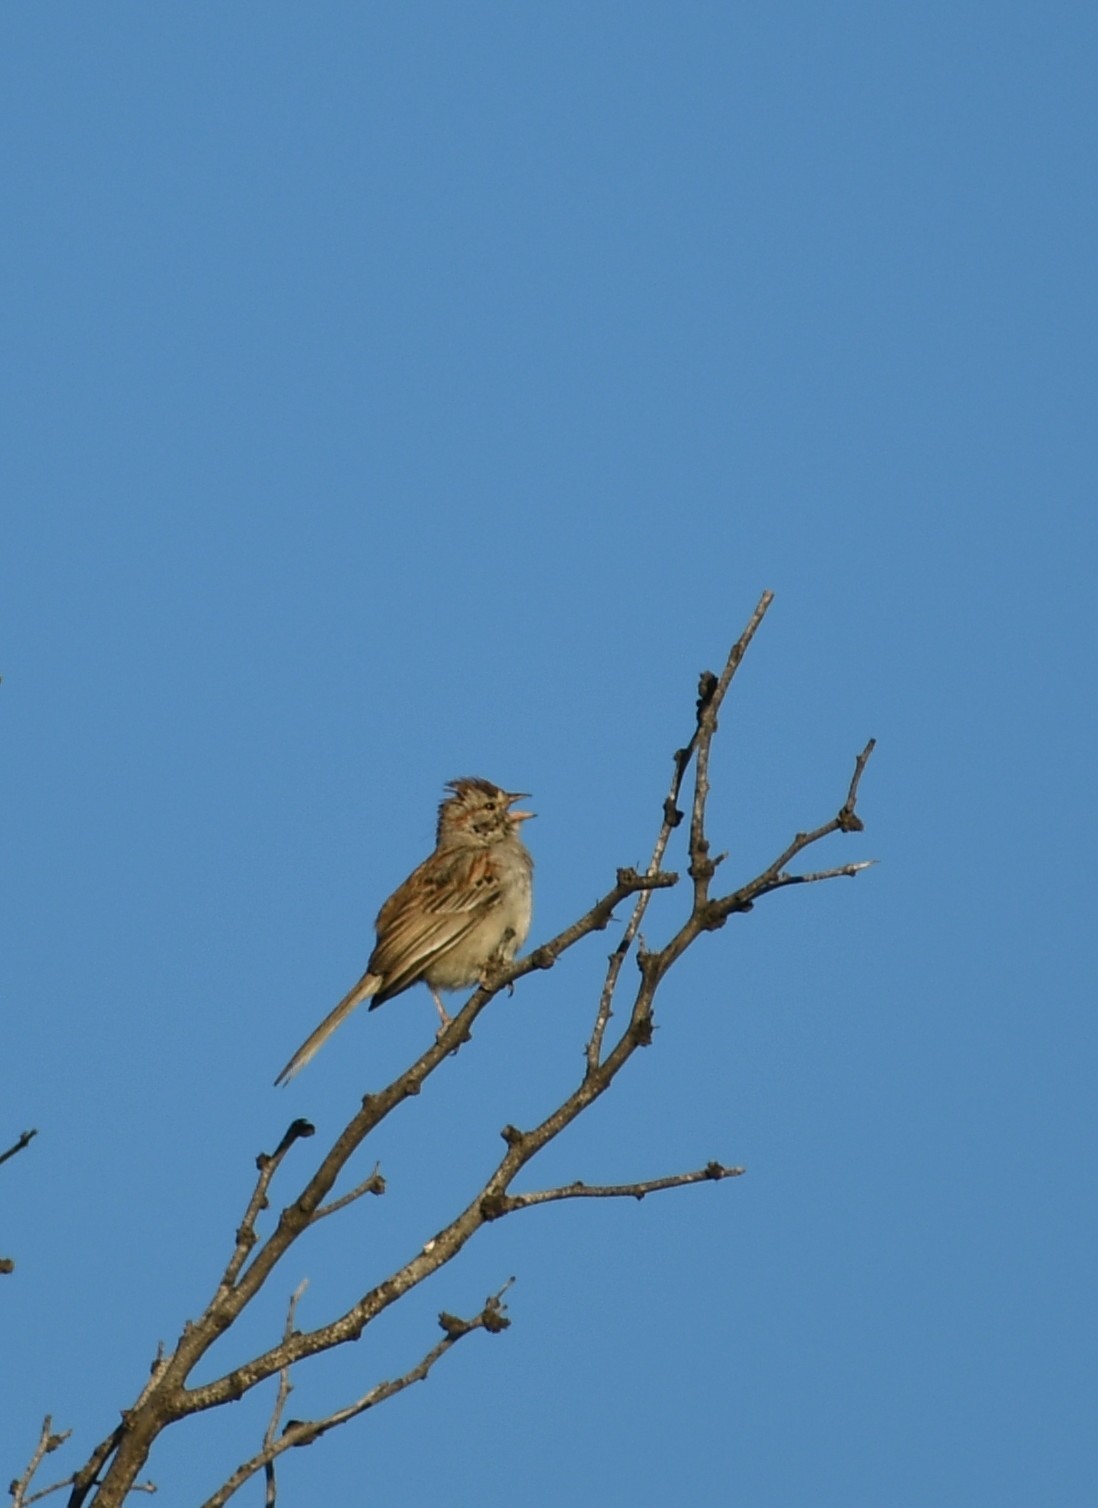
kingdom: Animalia
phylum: Chordata
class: Aves
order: Passeriformes
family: Passerellidae
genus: Peucaea
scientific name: Peucaea botterii
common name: Botteri's sparrow
